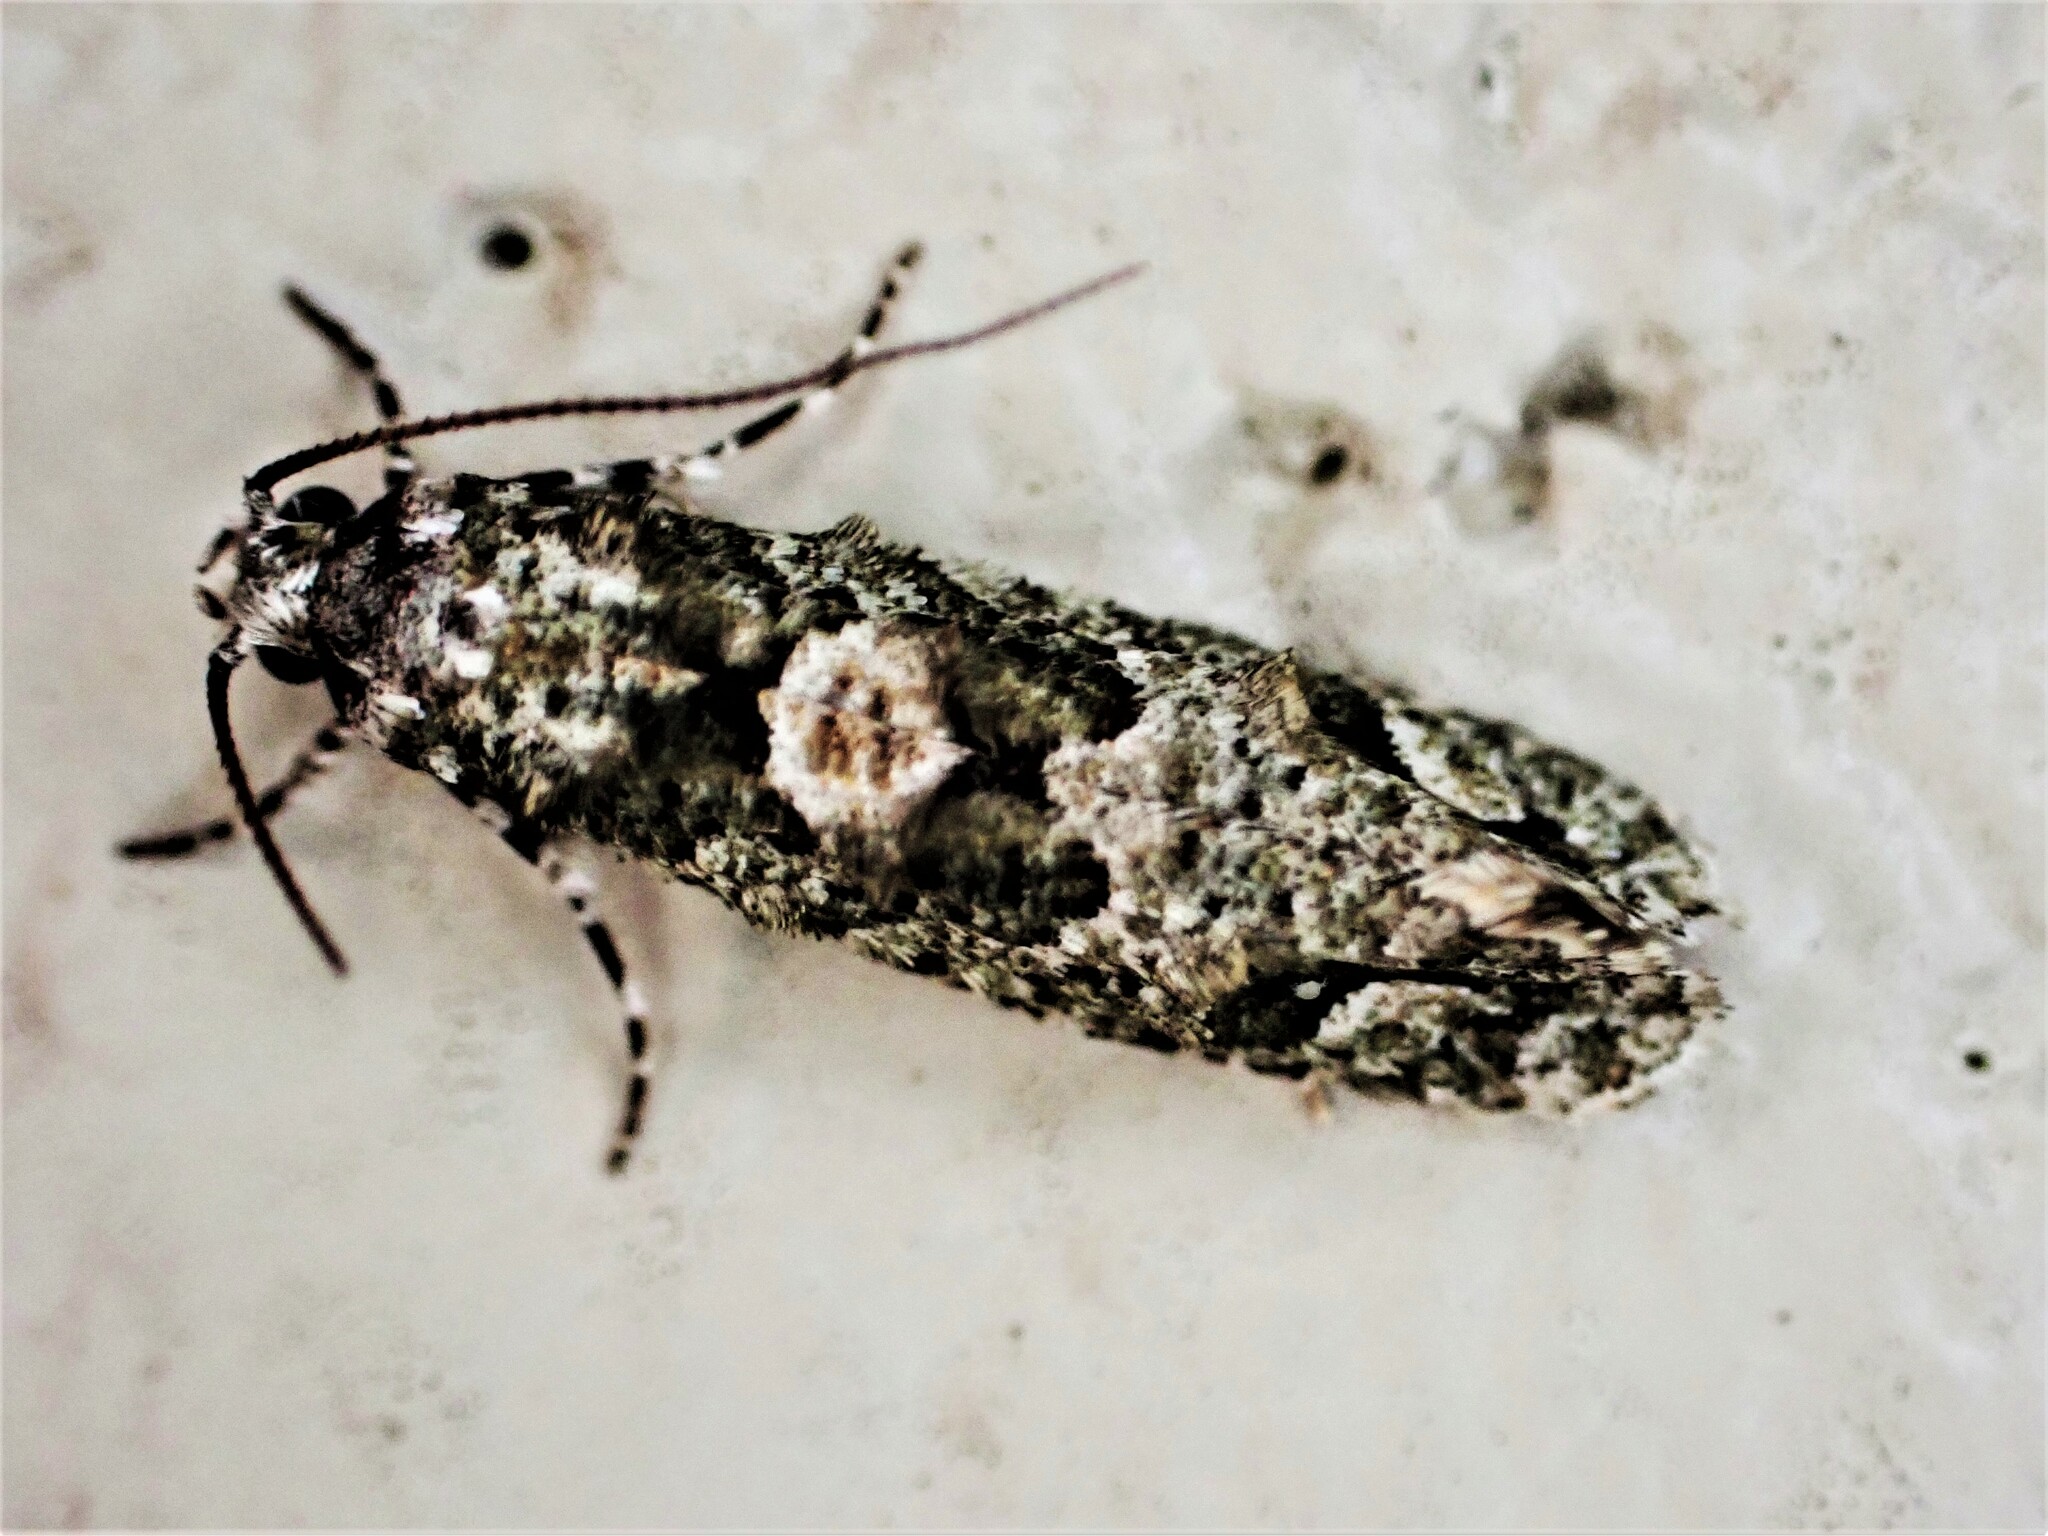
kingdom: Animalia
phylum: Arthropoda
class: Insecta
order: Lepidoptera
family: Tineidae
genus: Lysiphragma
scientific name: Lysiphragma howesii
